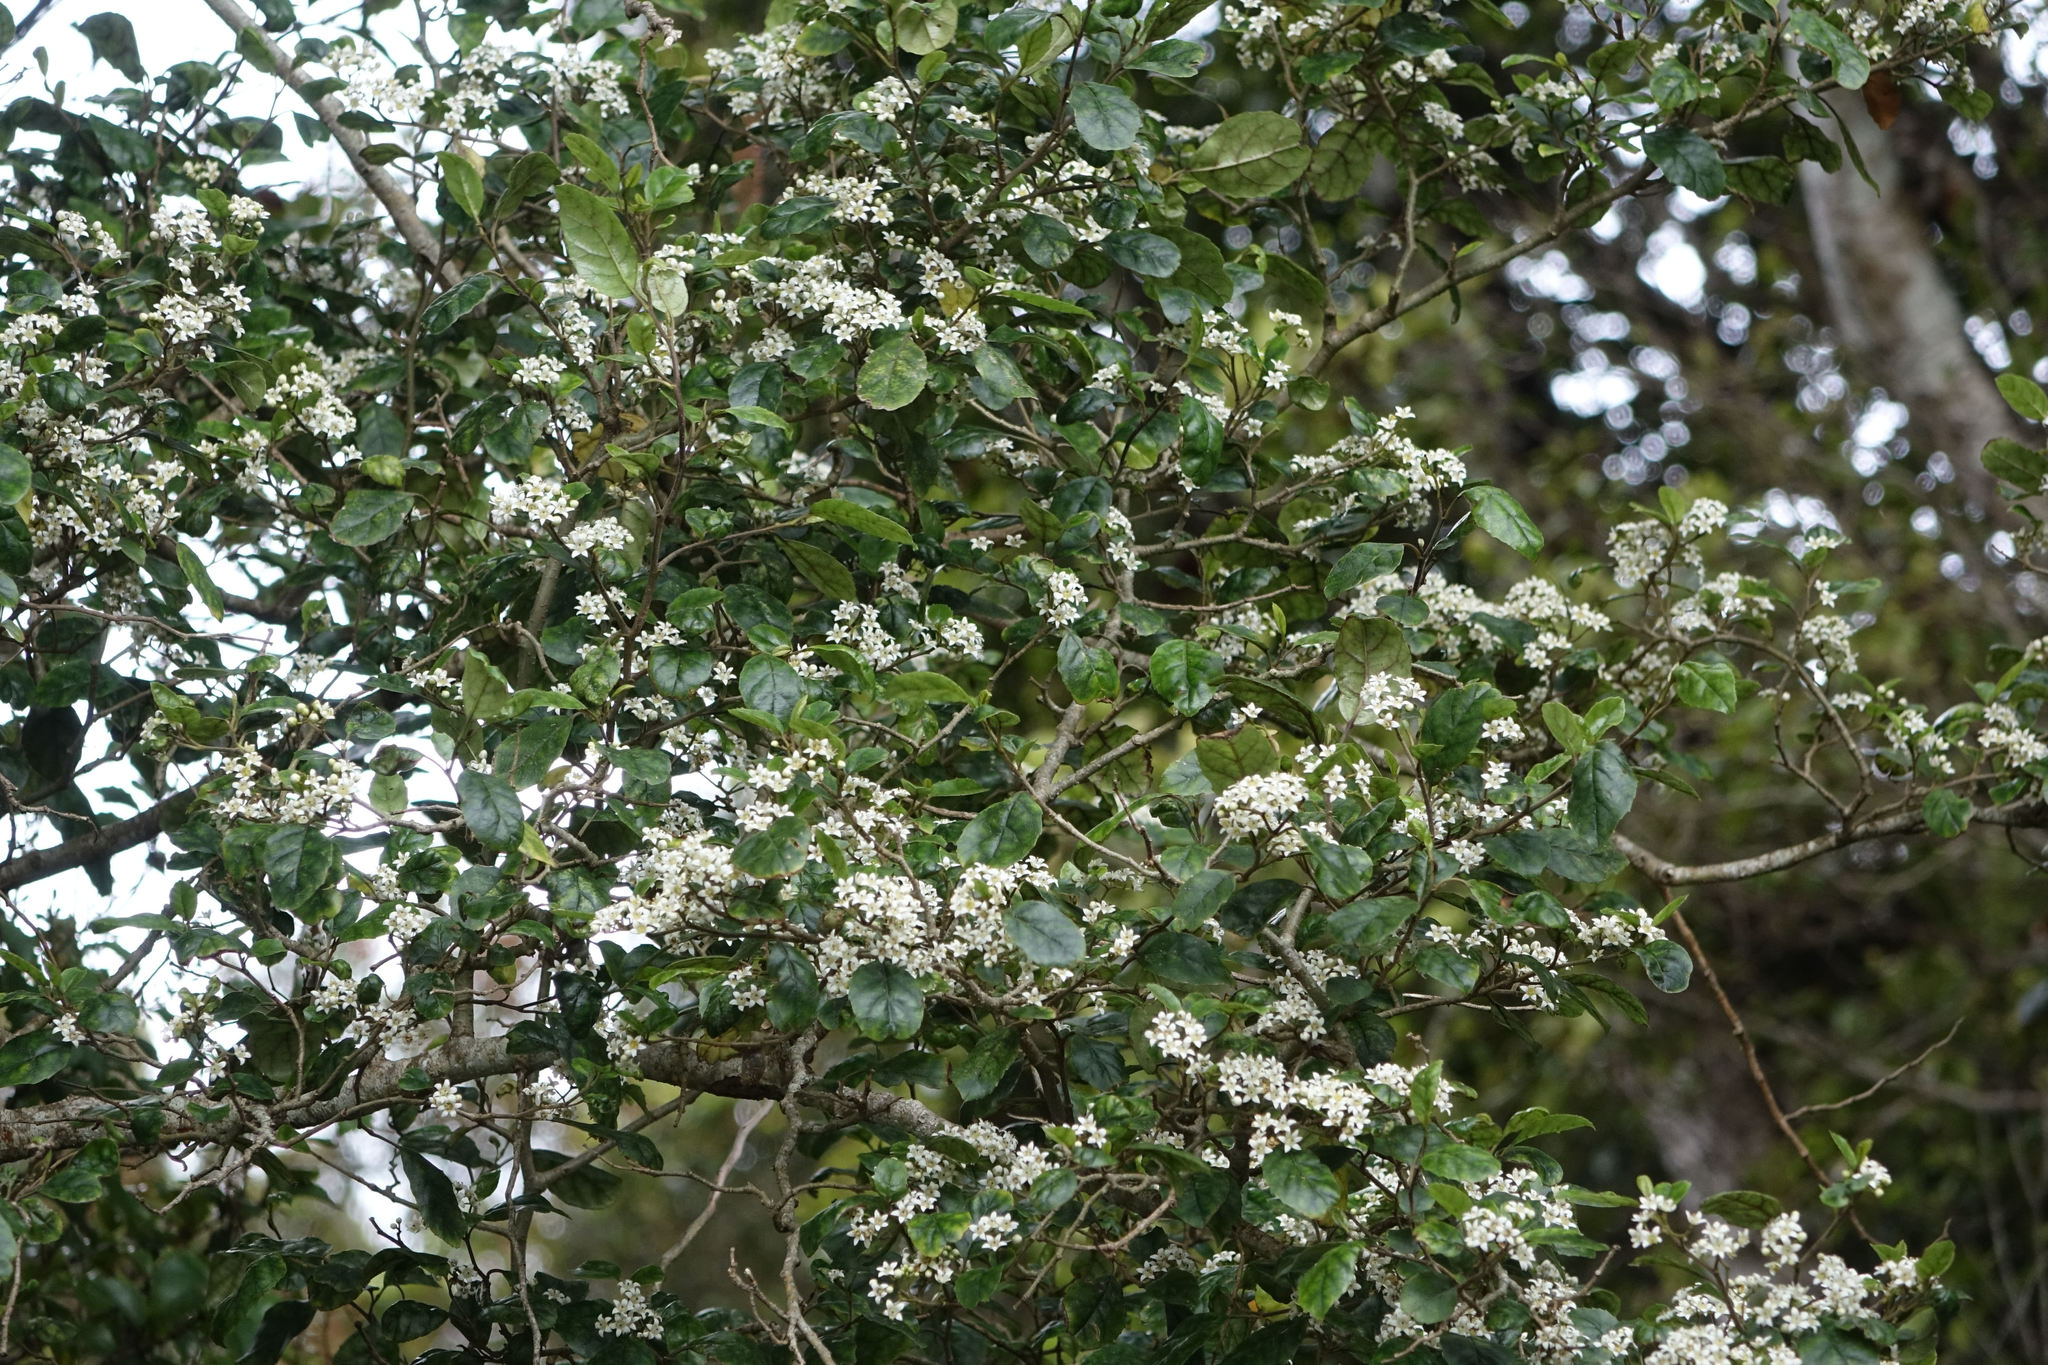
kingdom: Plantae
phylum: Tracheophyta
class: Magnoliopsida
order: Asterales
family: Rousseaceae
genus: Carpodetus
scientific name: Carpodetus serratus
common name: White mapau
